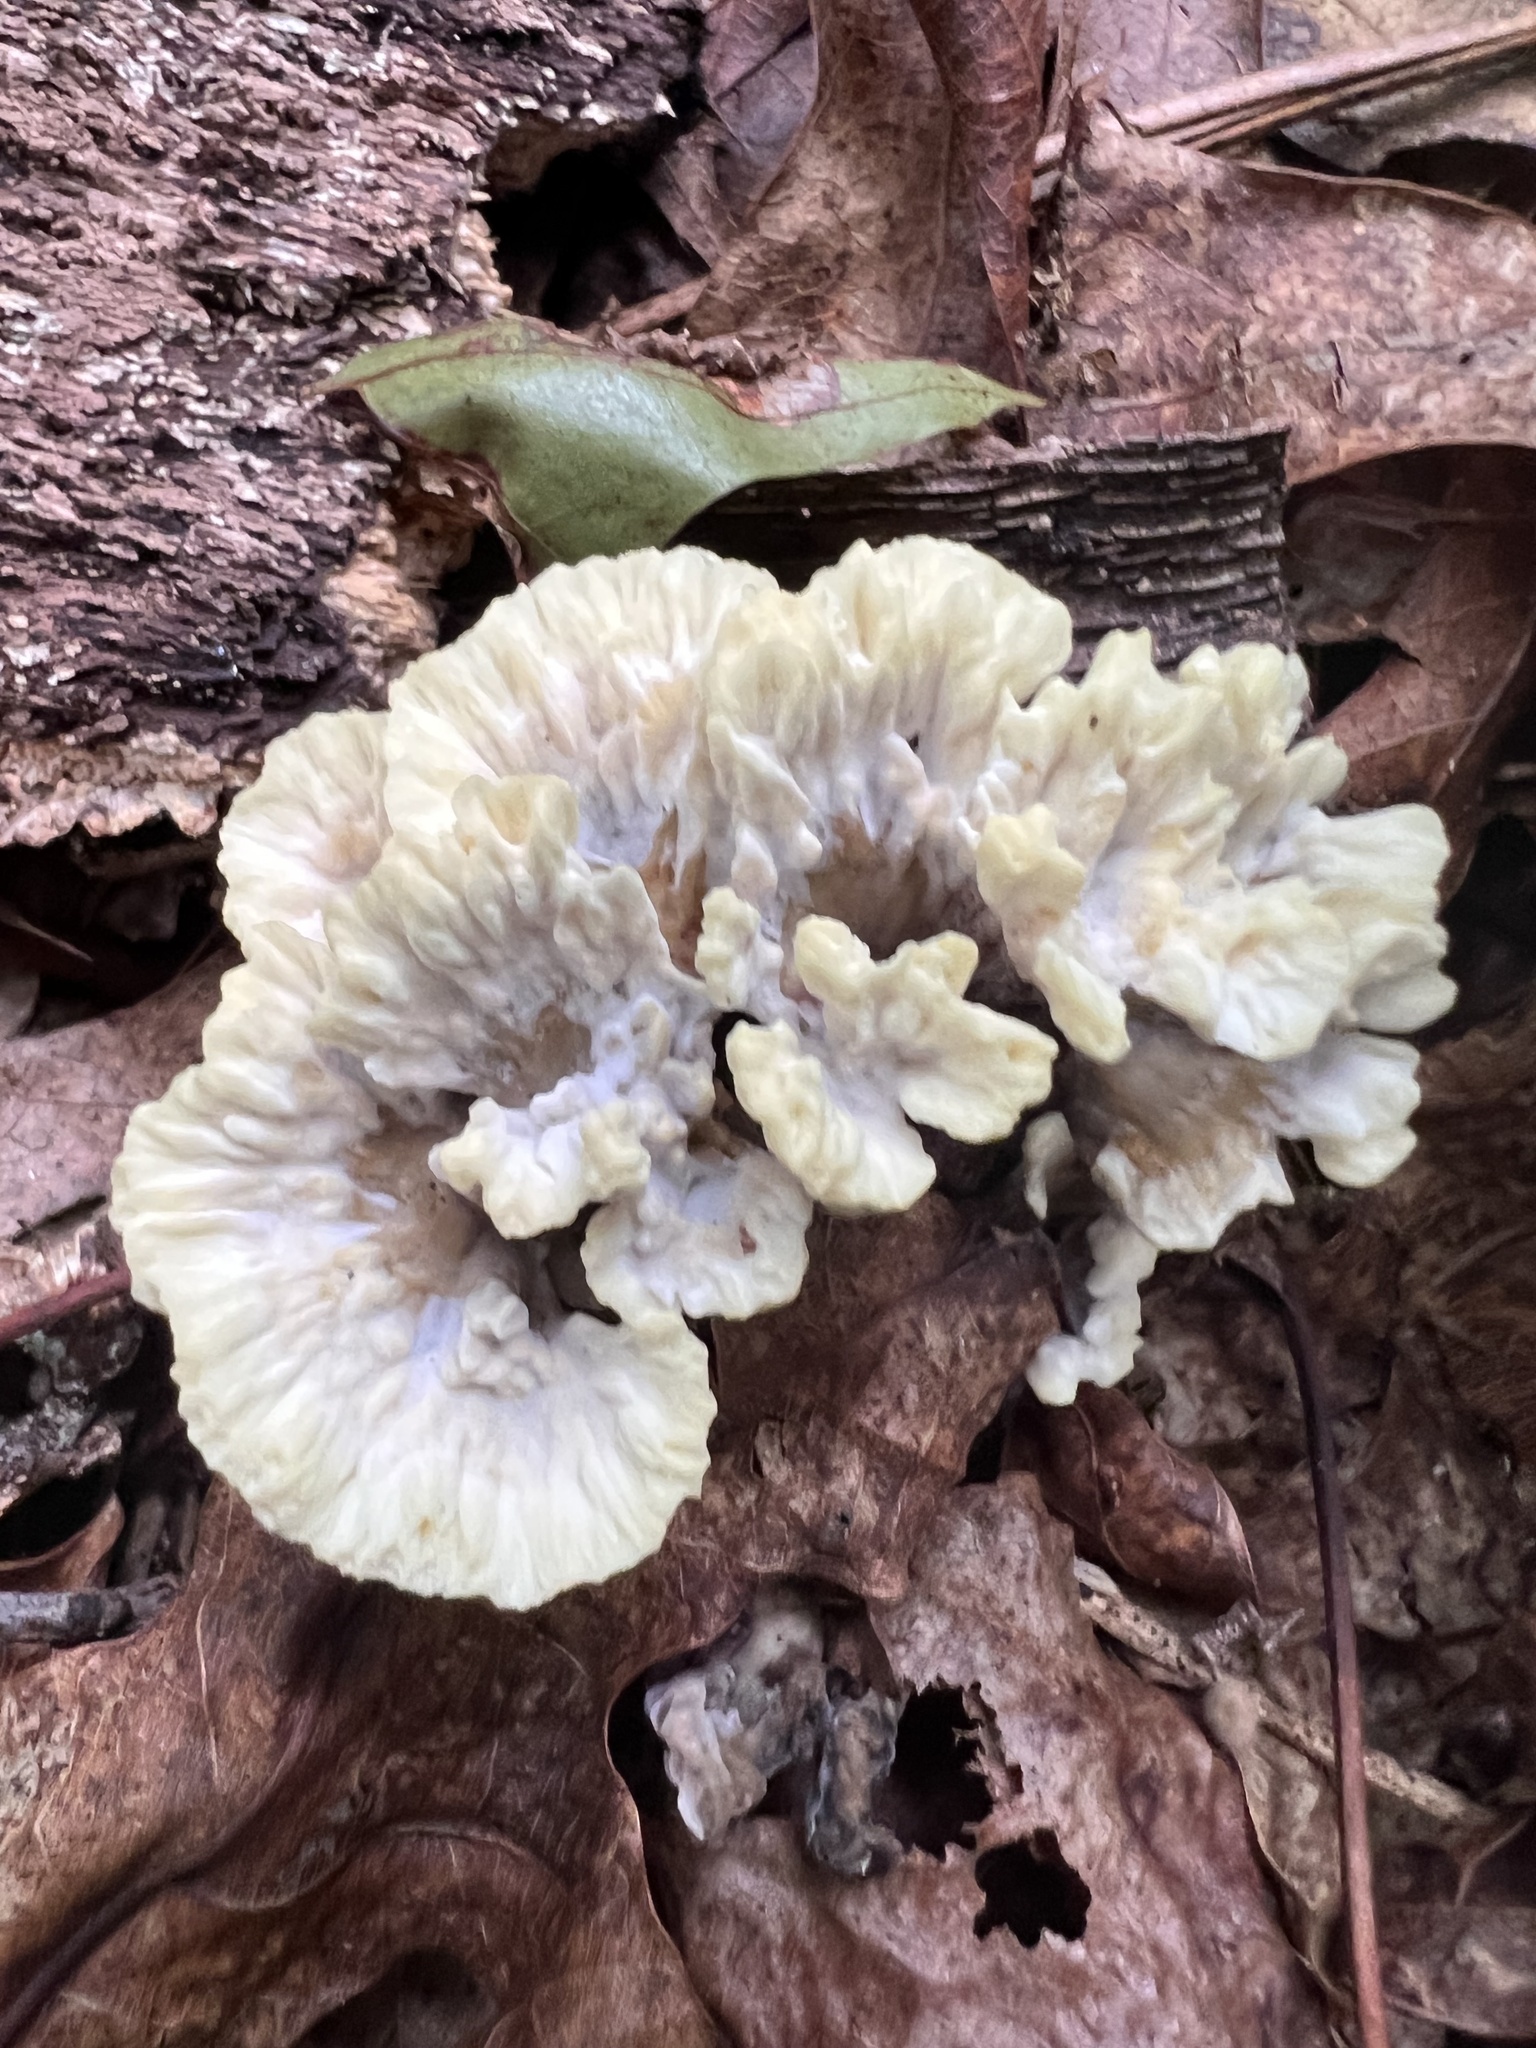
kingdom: Fungi
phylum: Basidiomycota
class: Agaricomycetes
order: Thelephorales
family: Thelephoraceae
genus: Thelephora
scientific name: Thelephora vialis
